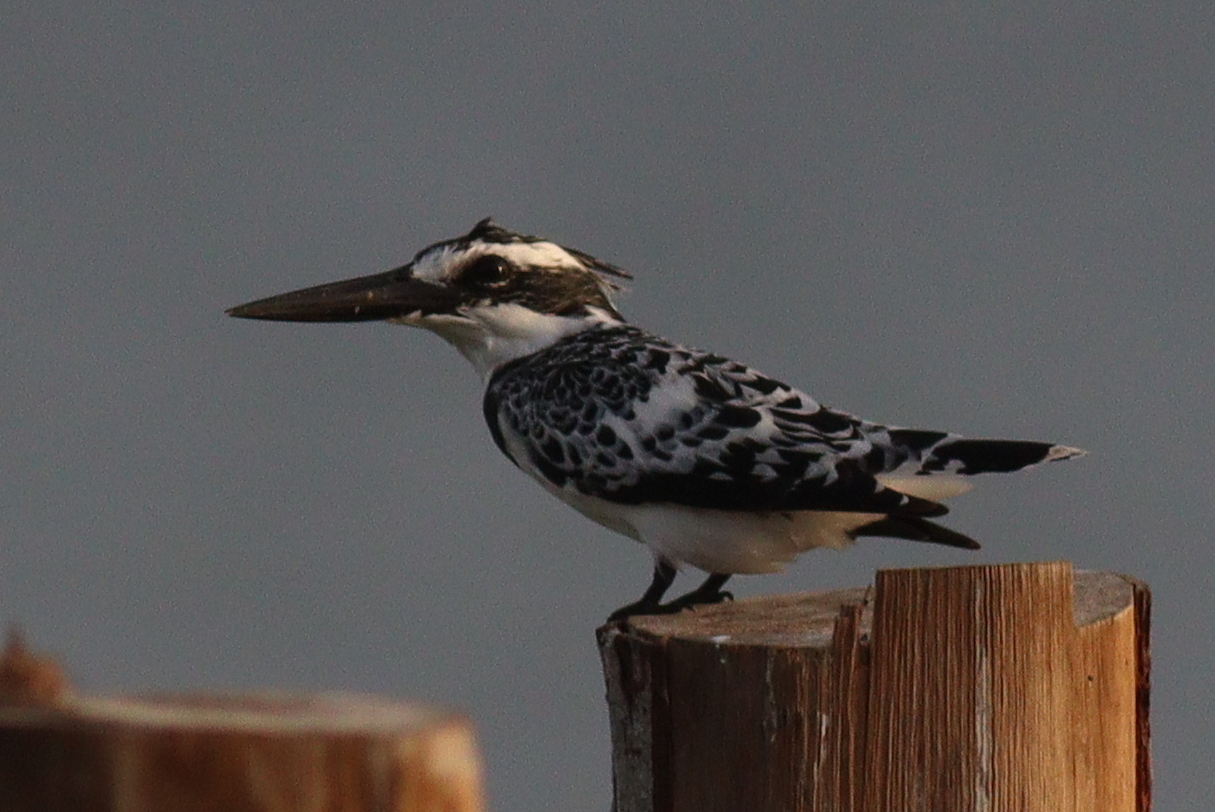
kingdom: Animalia
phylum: Chordata
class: Aves
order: Coraciiformes
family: Alcedinidae
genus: Ceryle
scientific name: Ceryle rudis
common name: Pied kingfisher
